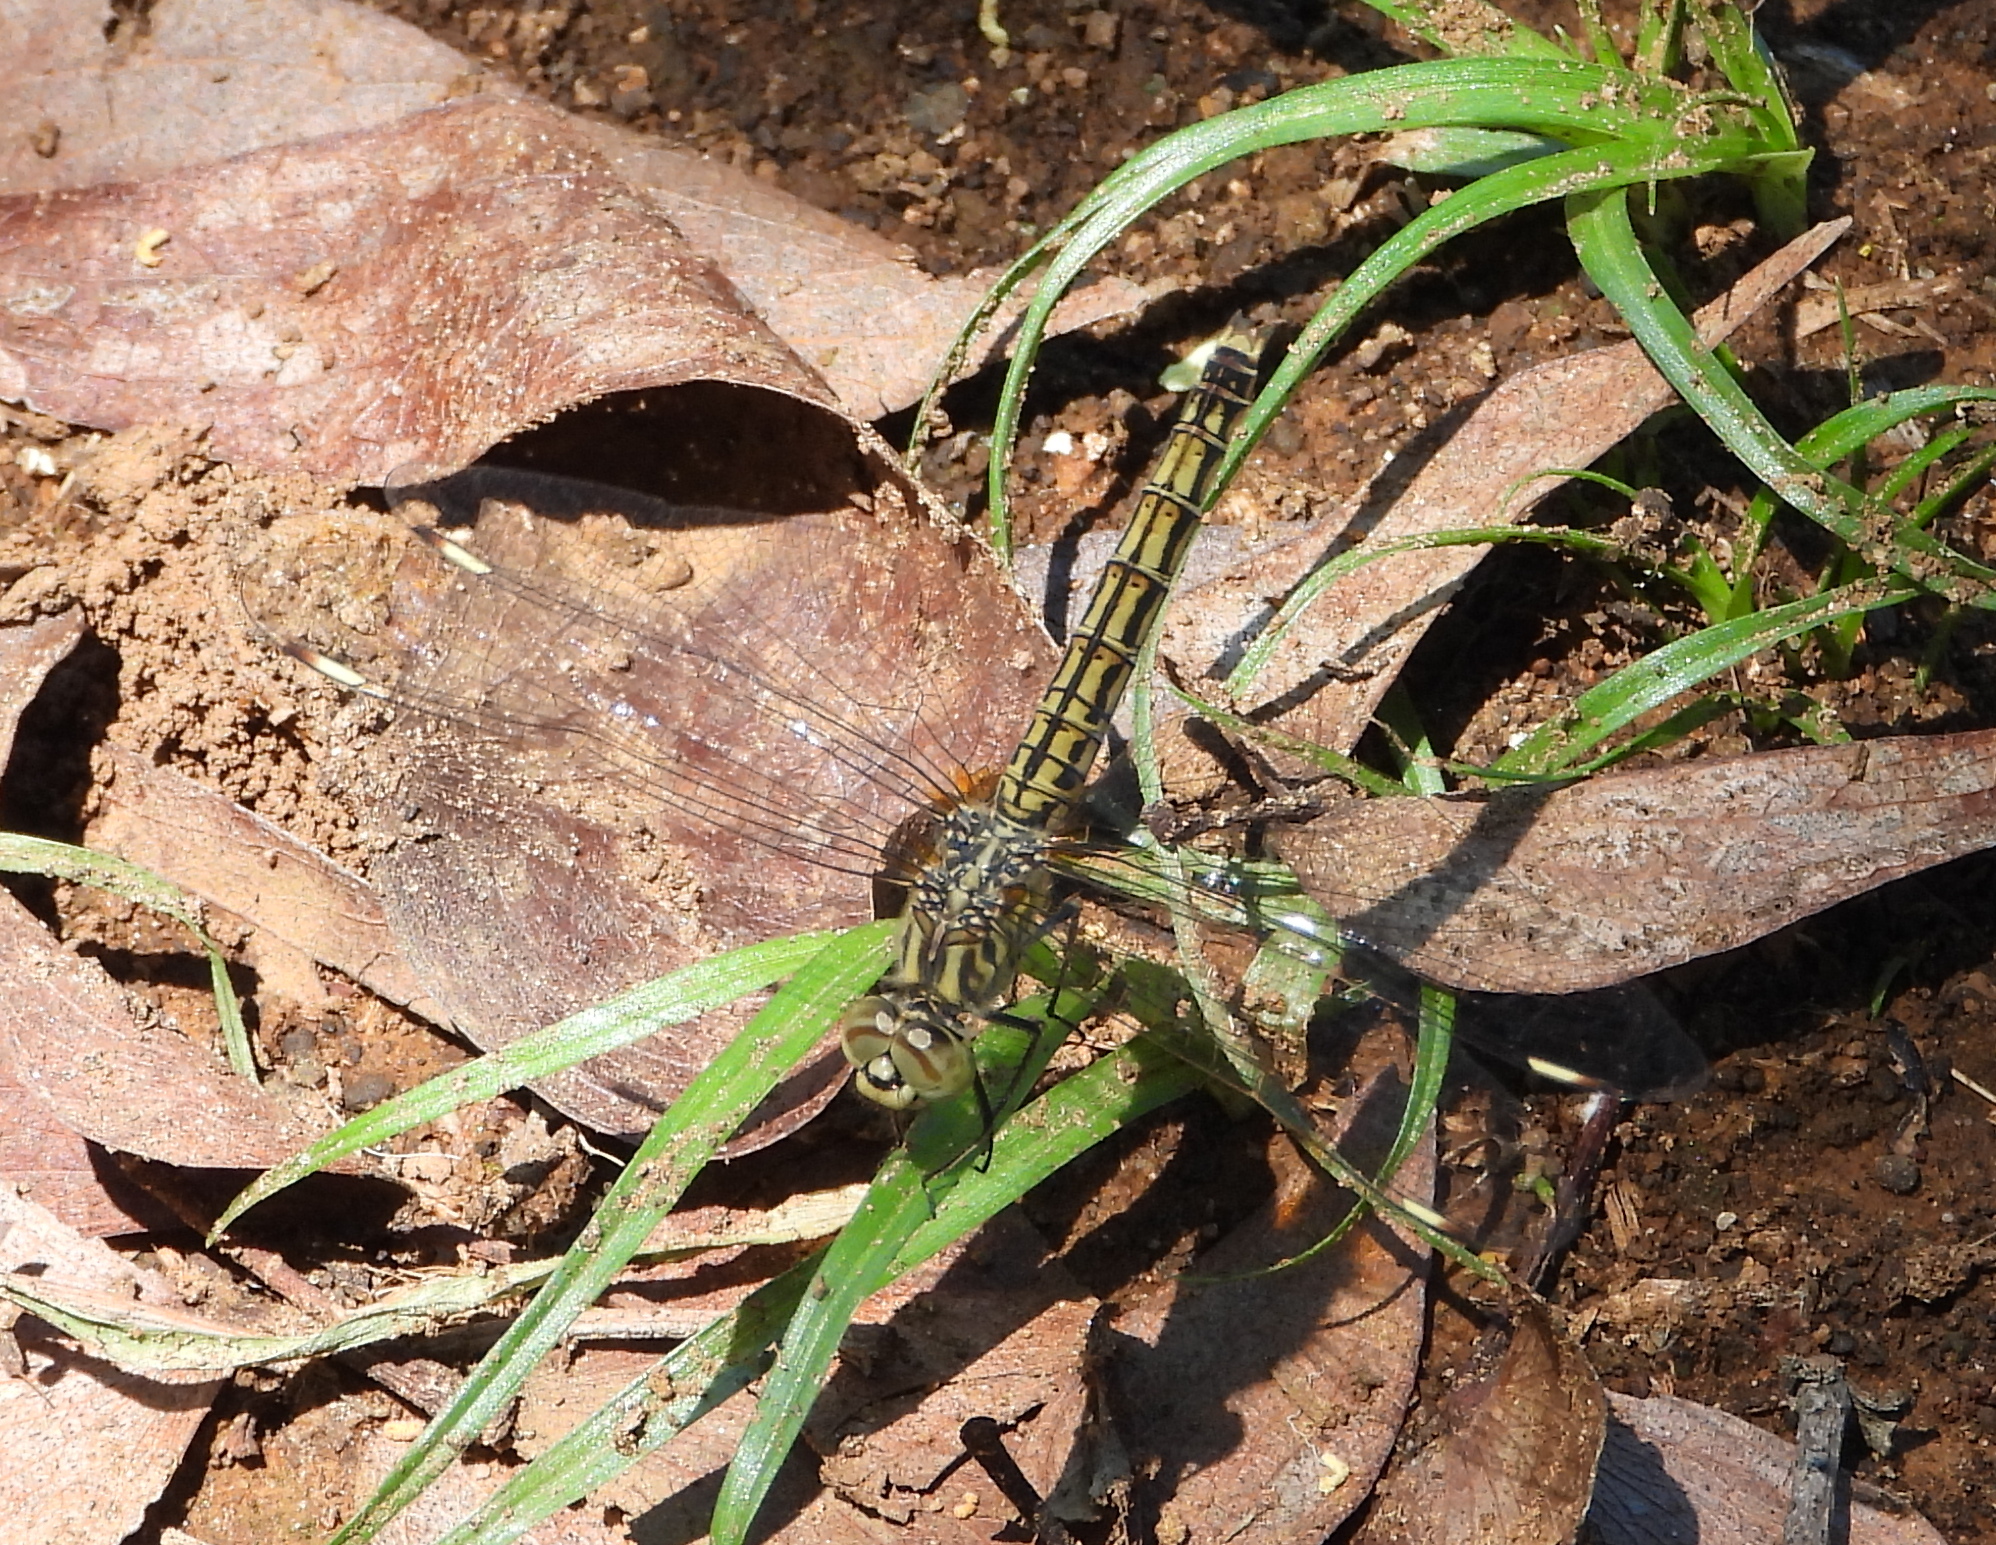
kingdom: Animalia
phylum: Arthropoda
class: Insecta
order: Odonata
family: Libellulidae
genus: Brachythemis
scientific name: Brachythemis leucosticta
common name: Banded groundling
